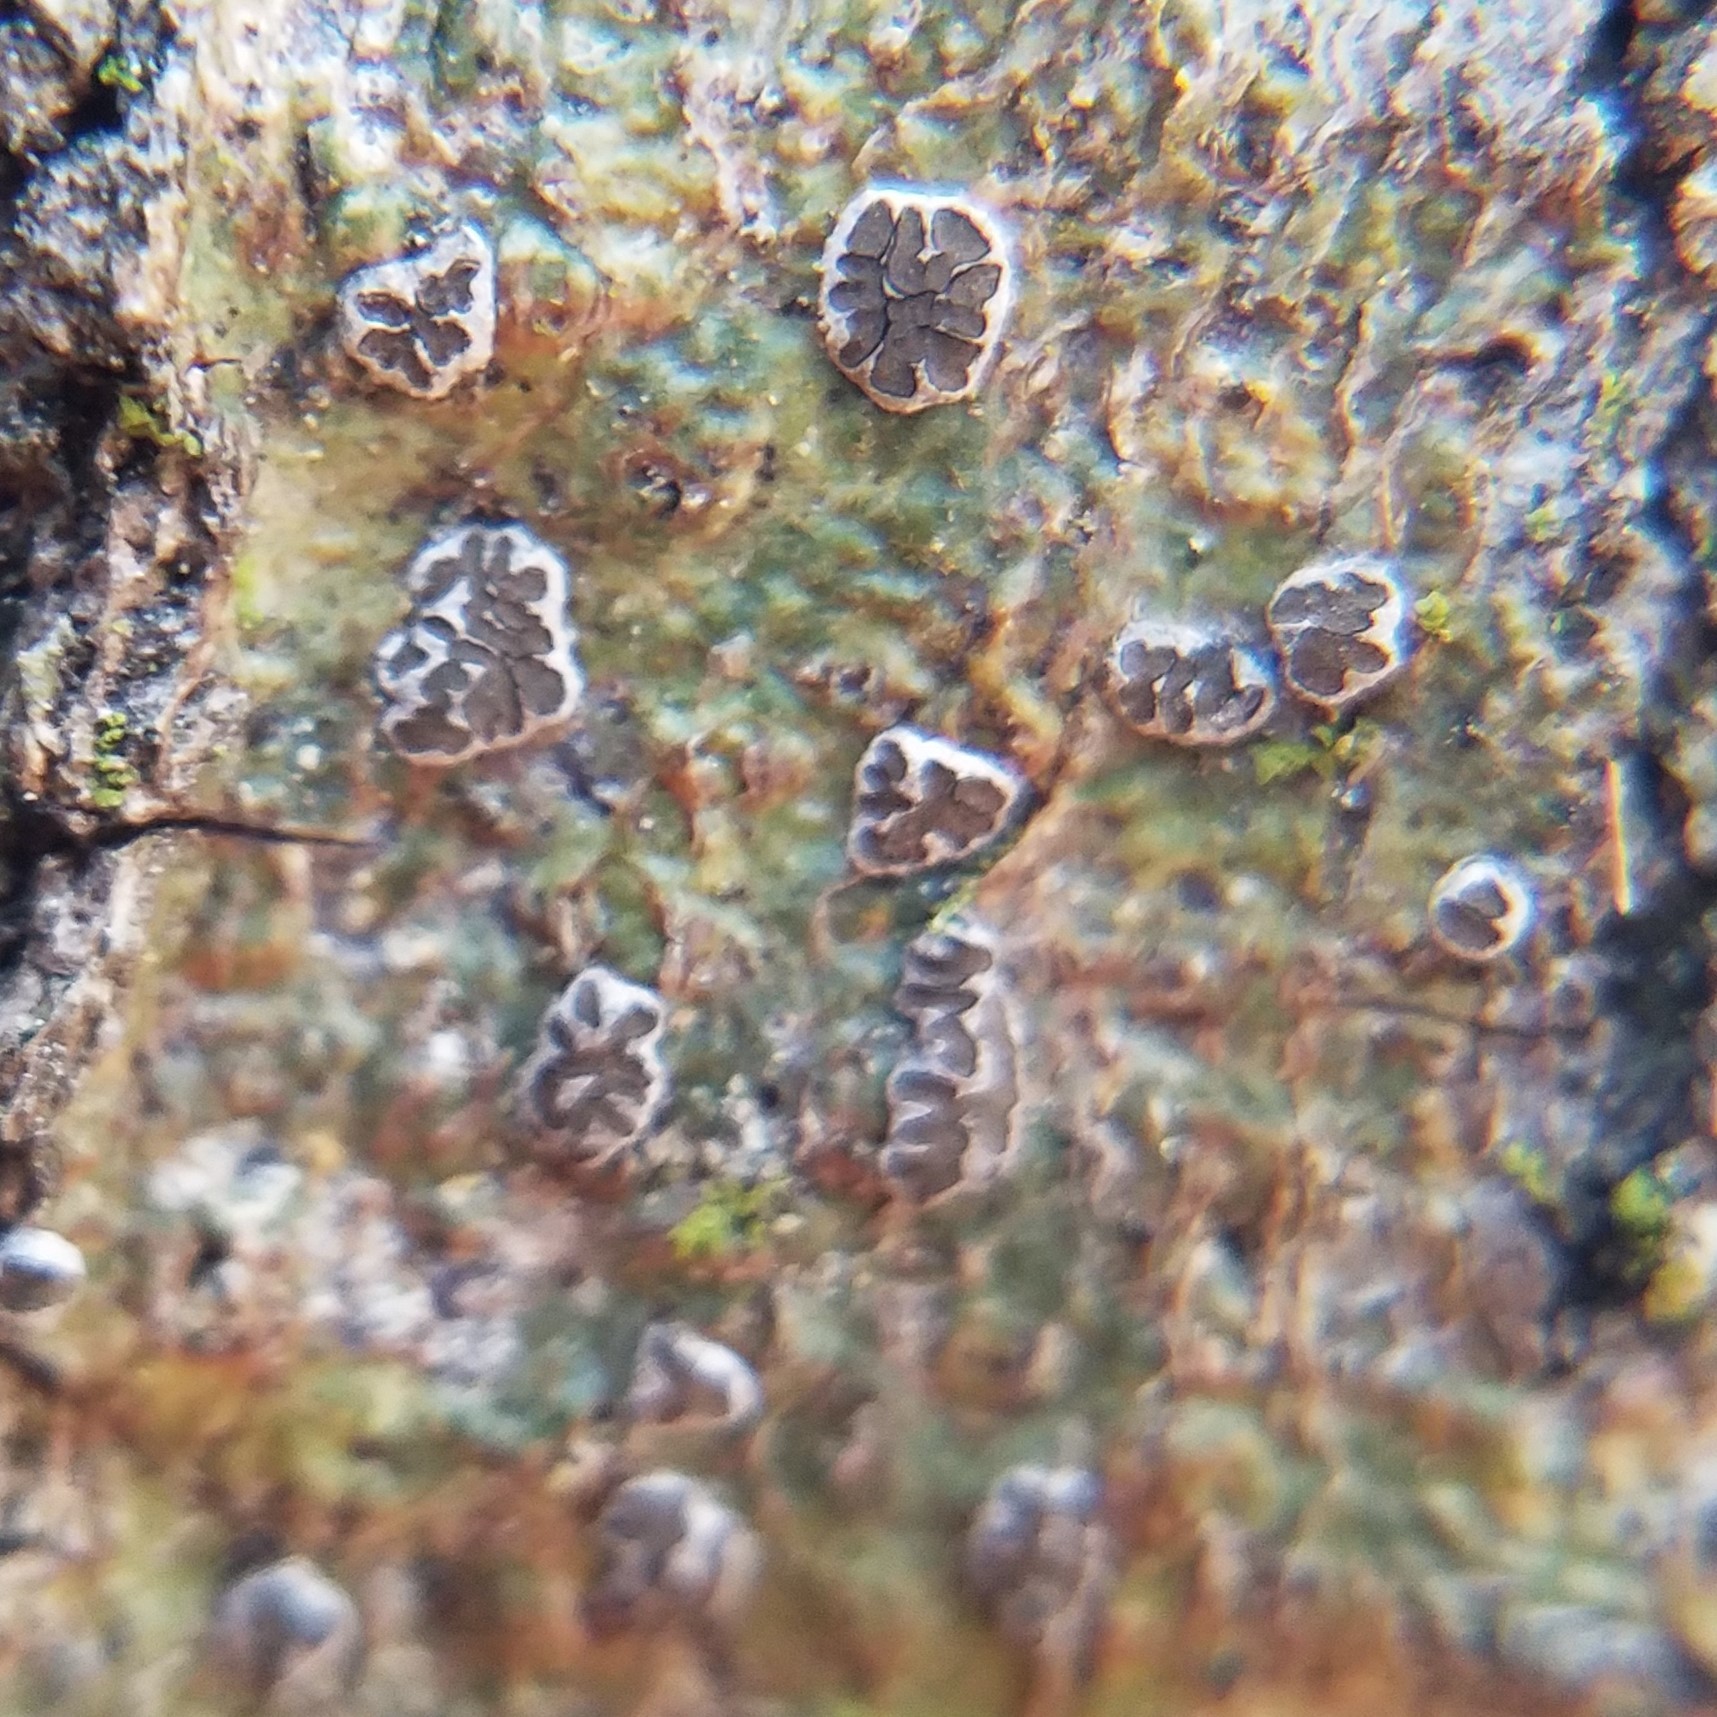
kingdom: Fungi
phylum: Ascomycota
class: Lecanoromycetes
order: Ostropales
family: Graphidaceae
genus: Glyphis
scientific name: Glyphis cicatricosa
